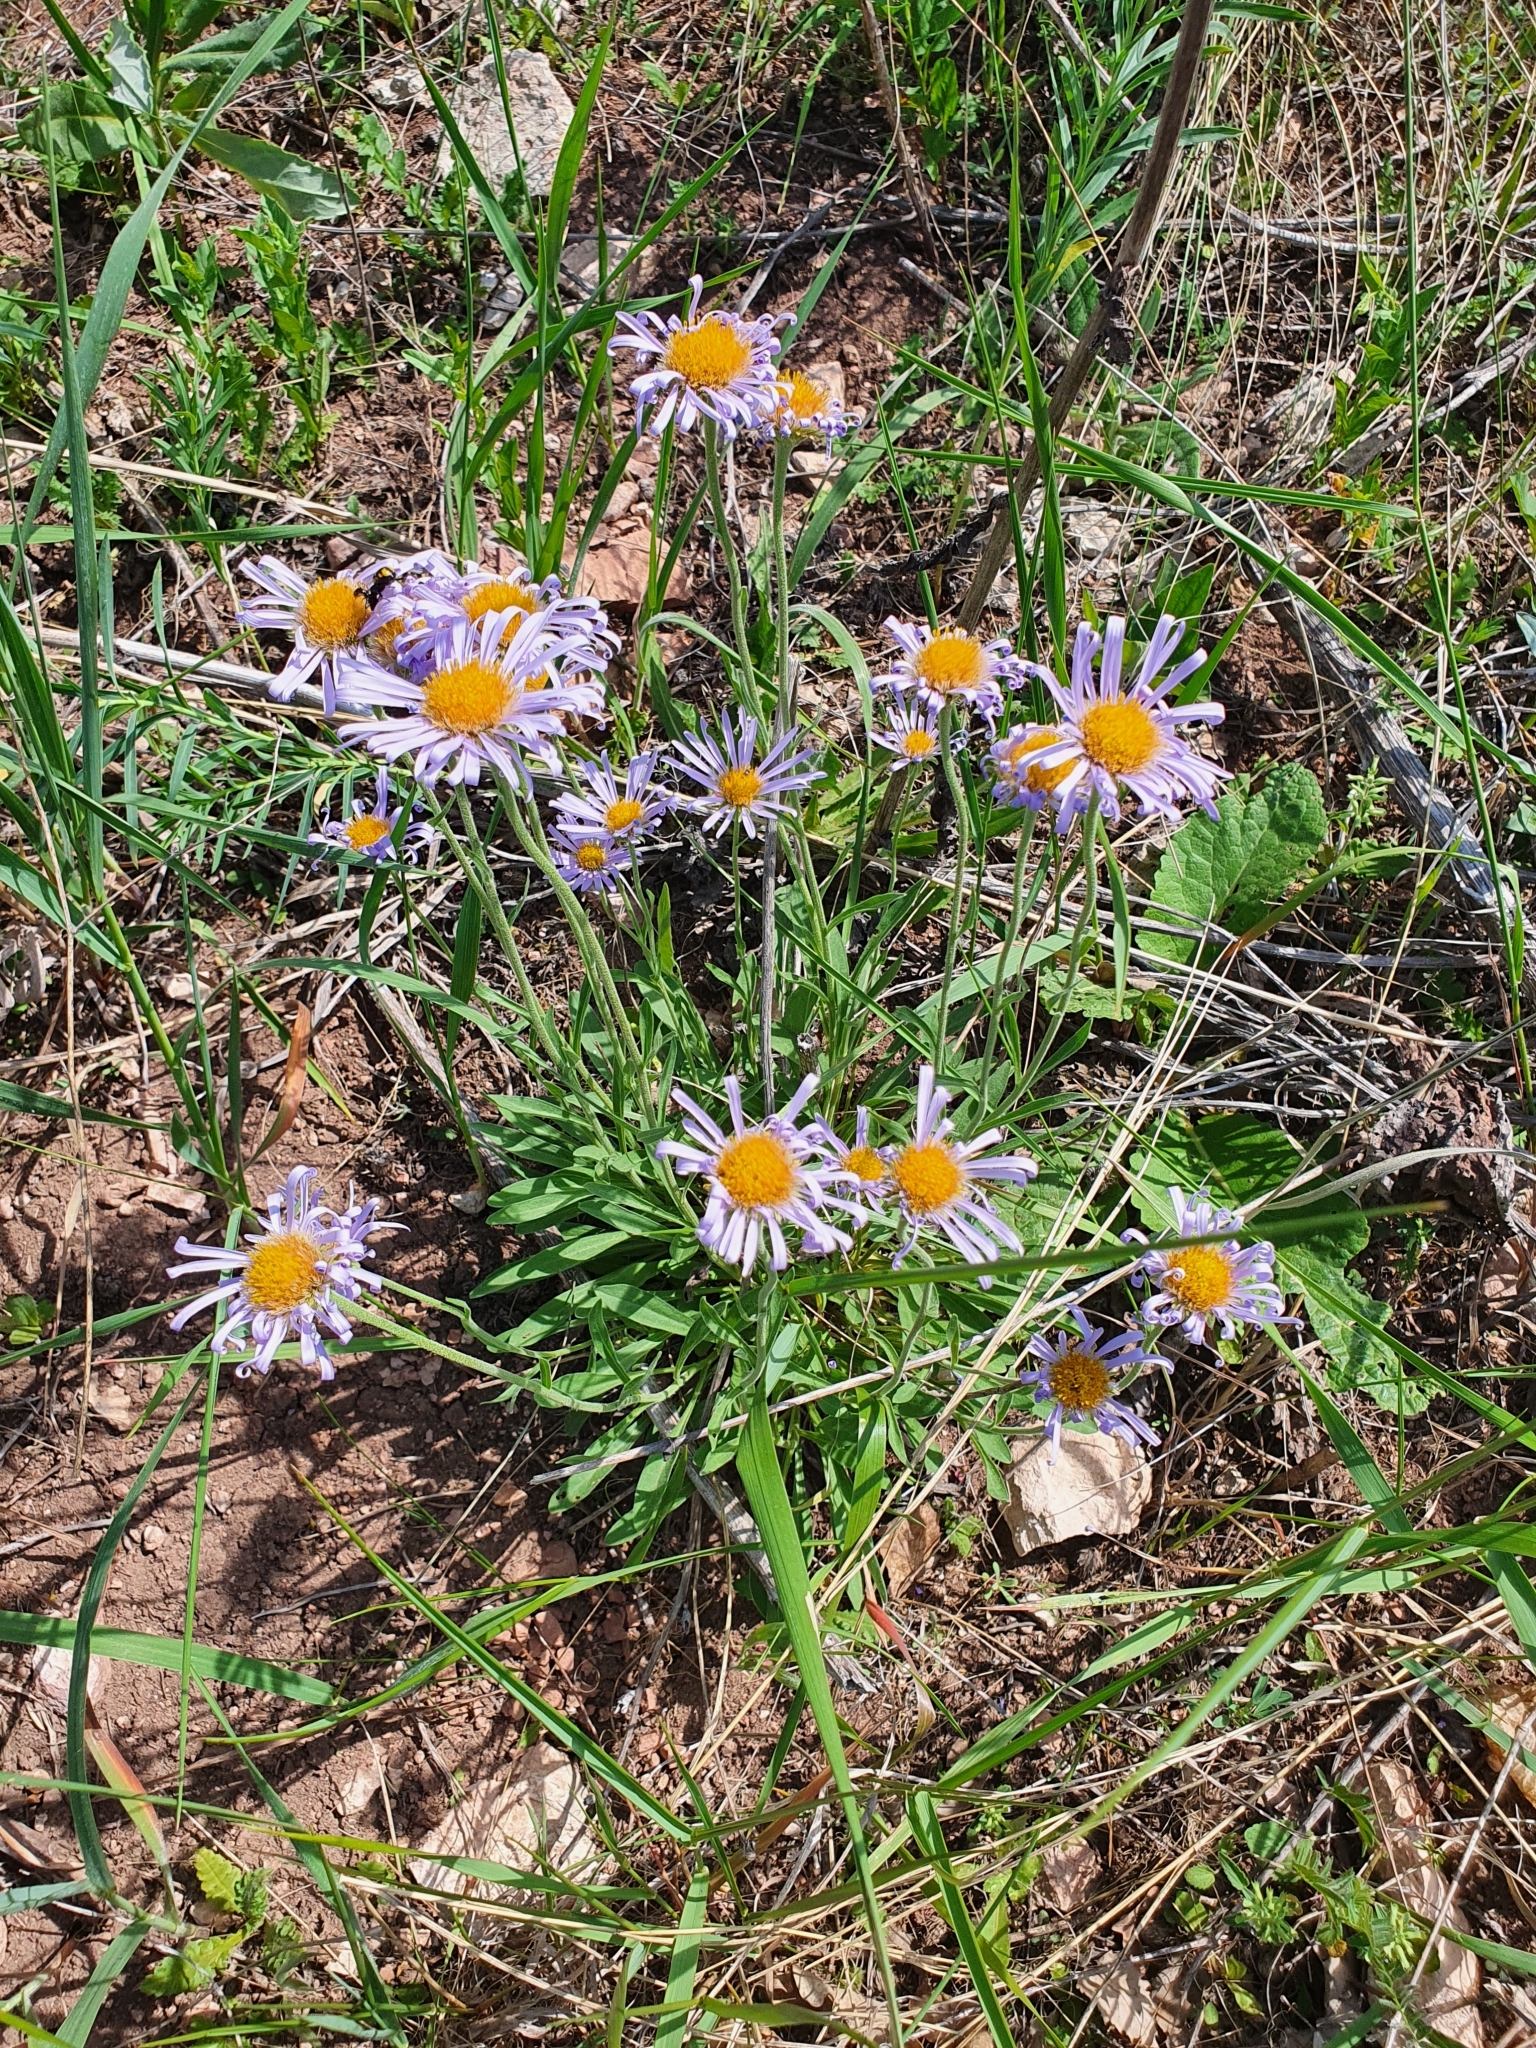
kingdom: Plantae
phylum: Tracheophyta
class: Magnoliopsida
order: Asterales
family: Asteraceae
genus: Aster
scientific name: Aster alpinus
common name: Alpine aster
